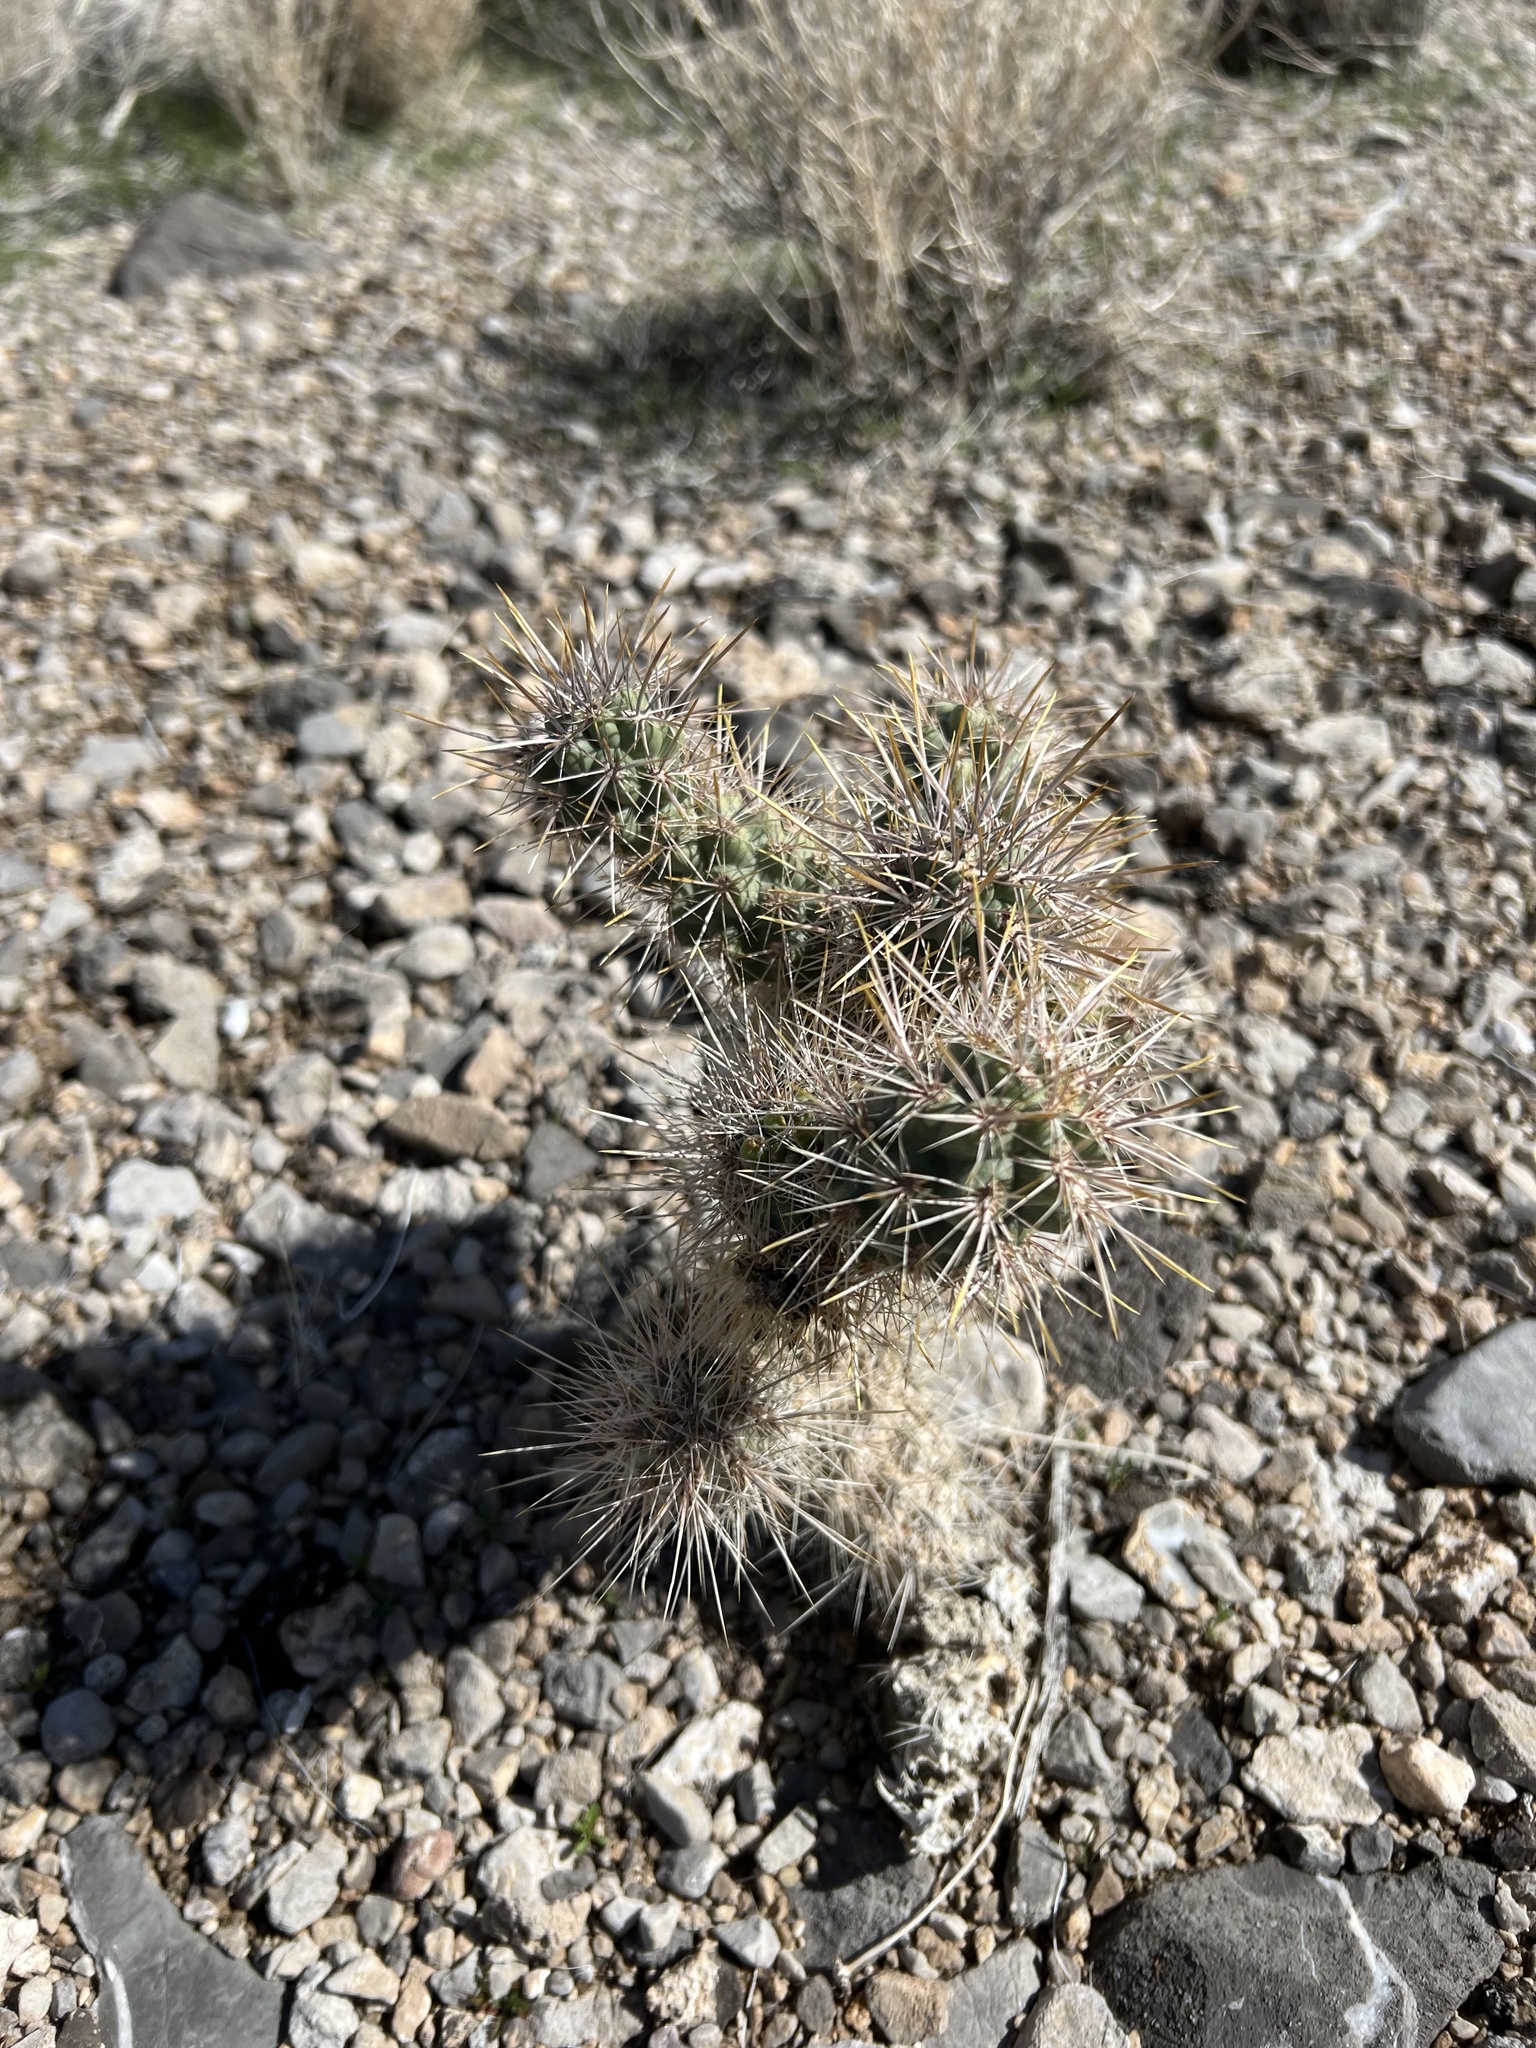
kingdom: Plantae
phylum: Tracheophyta
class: Magnoliopsida
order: Caryophyllales
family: Cactaceae
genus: Cylindropuntia
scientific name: Cylindropuntia echinocarpa
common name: Ground cholla
